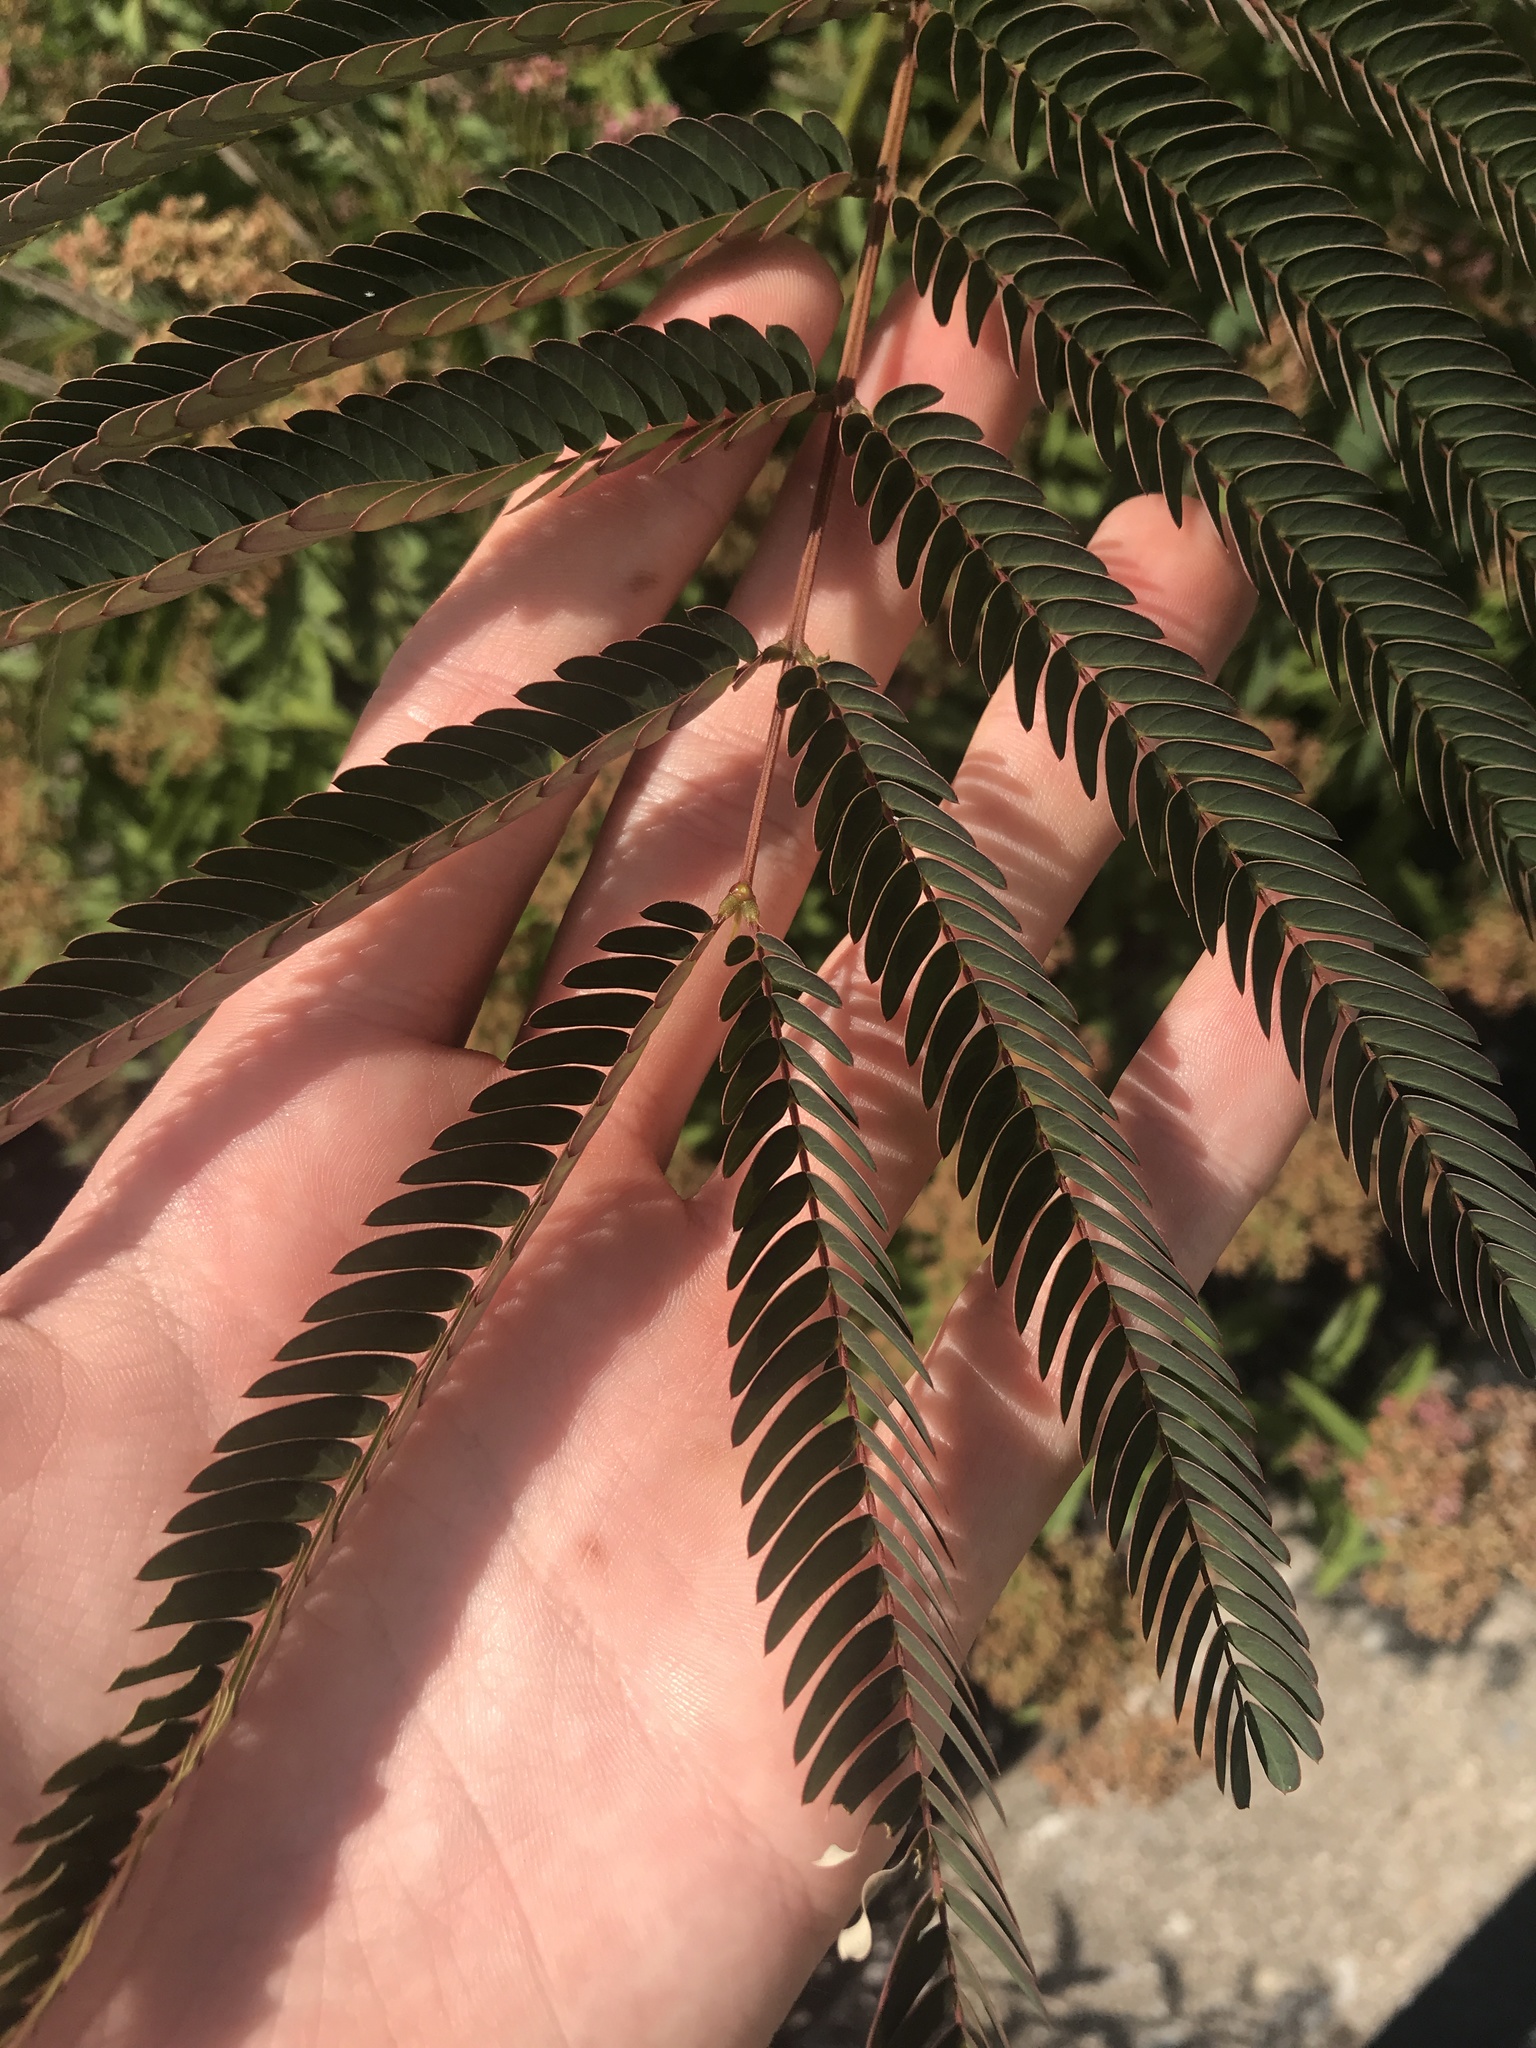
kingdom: Plantae
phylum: Tracheophyta
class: Magnoliopsida
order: Fabales
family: Fabaceae
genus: Albizia
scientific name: Albizia julibrissin
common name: Silktree
